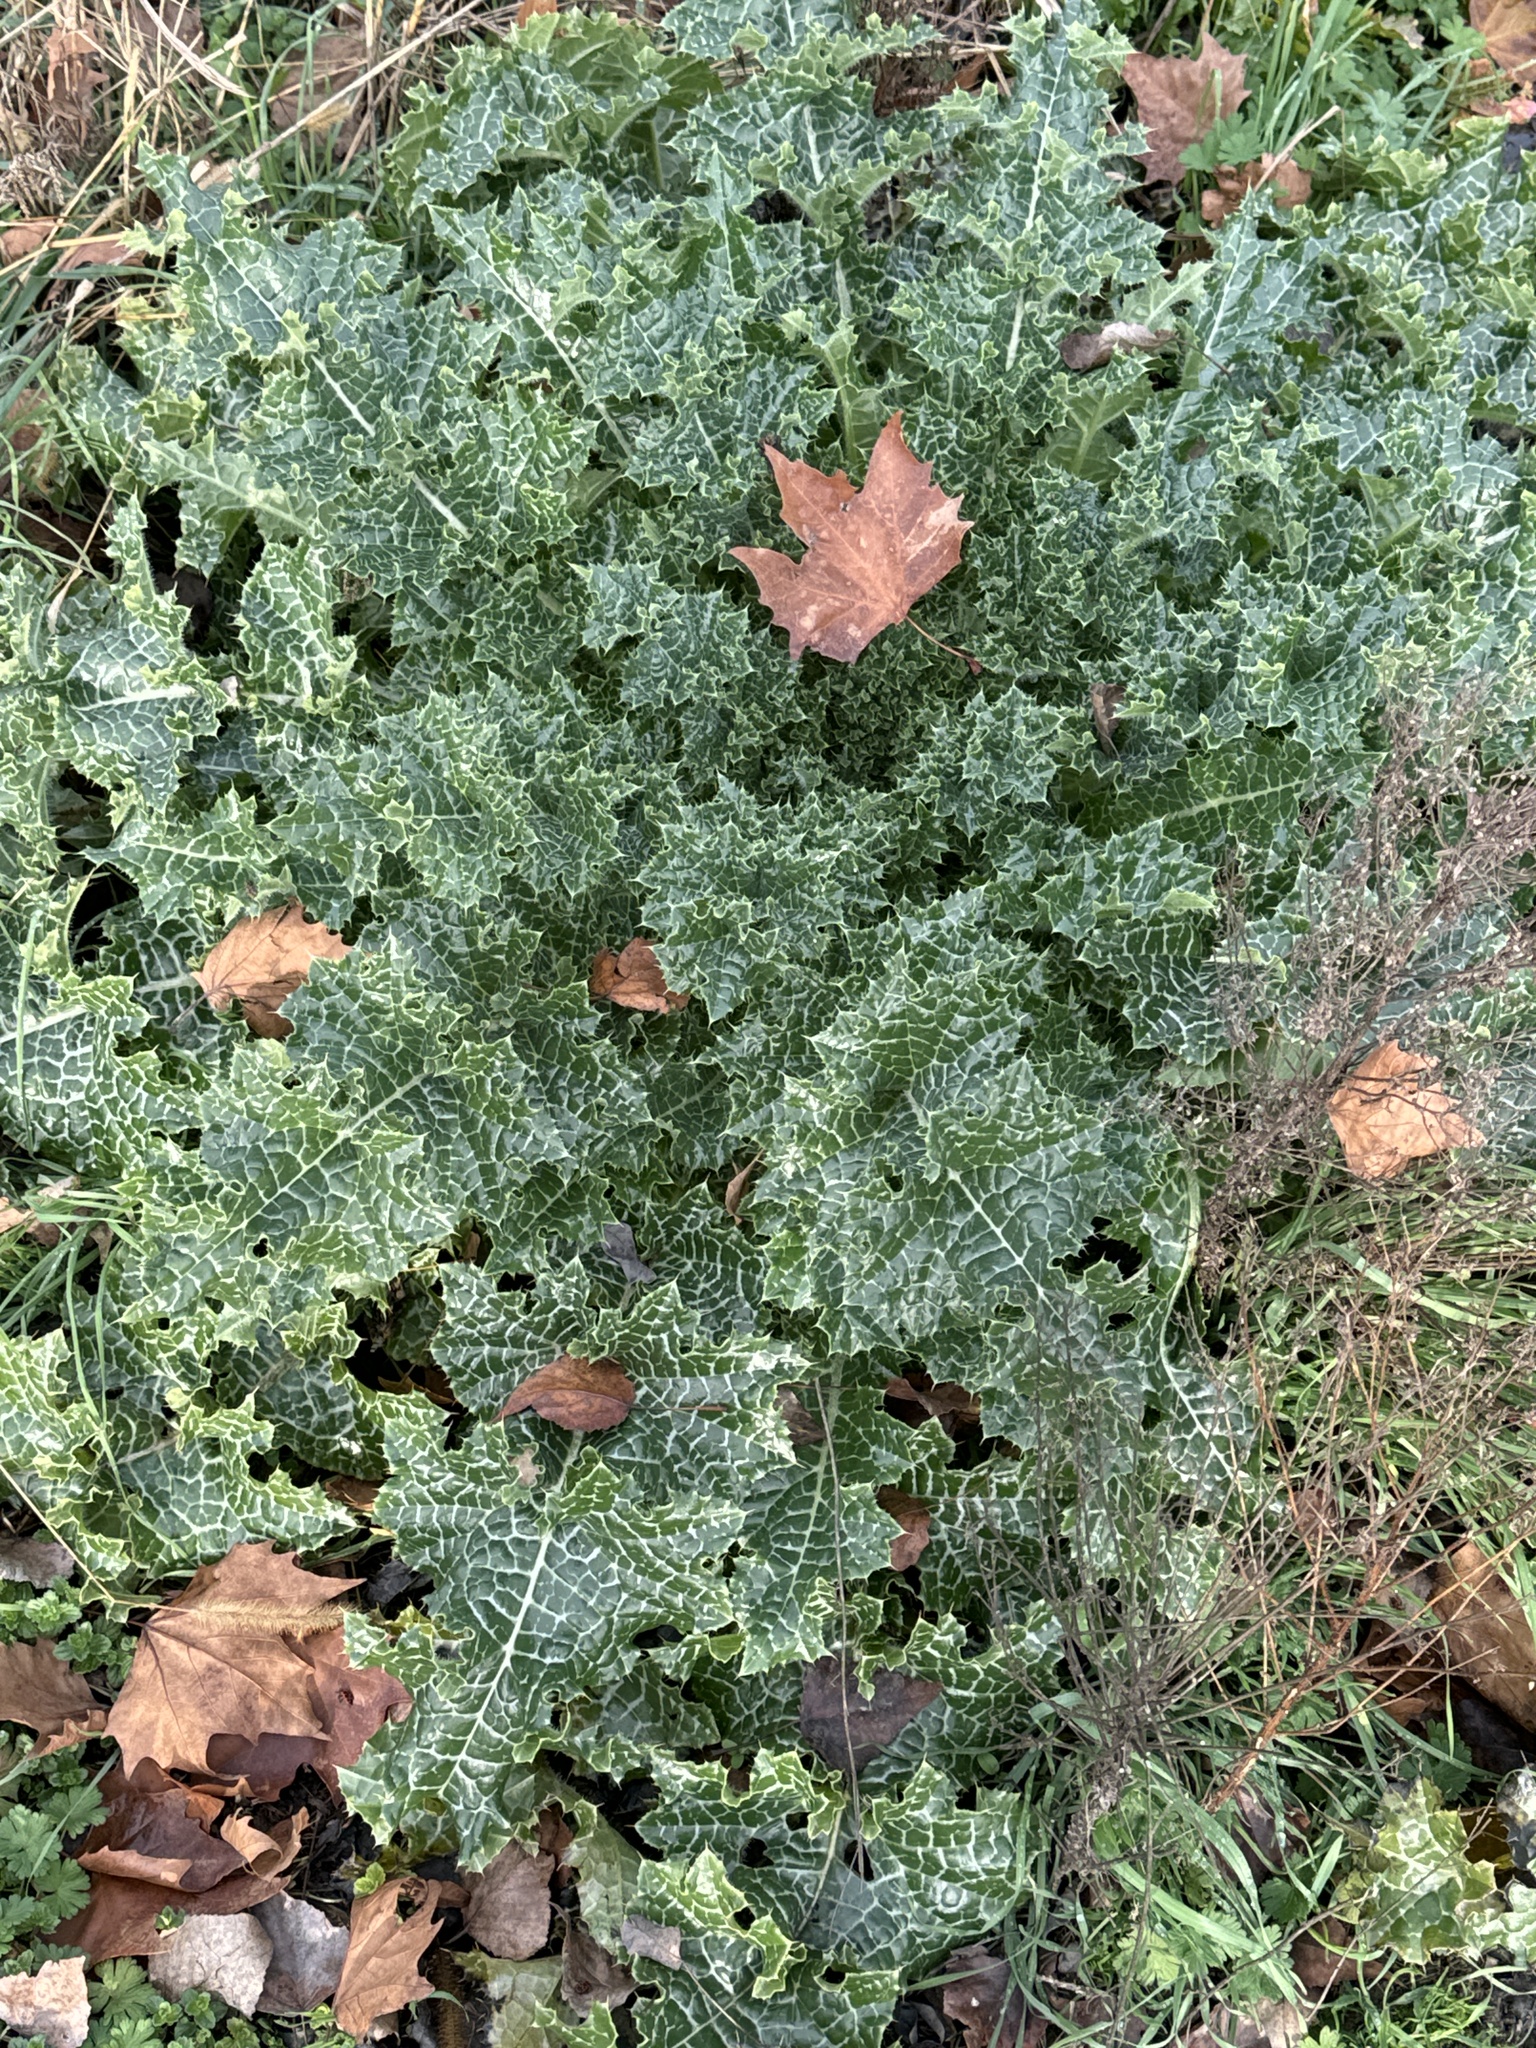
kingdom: Plantae
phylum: Tracheophyta
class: Magnoliopsida
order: Asterales
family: Asteraceae
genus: Silybum
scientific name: Silybum marianum
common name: Milk thistle
